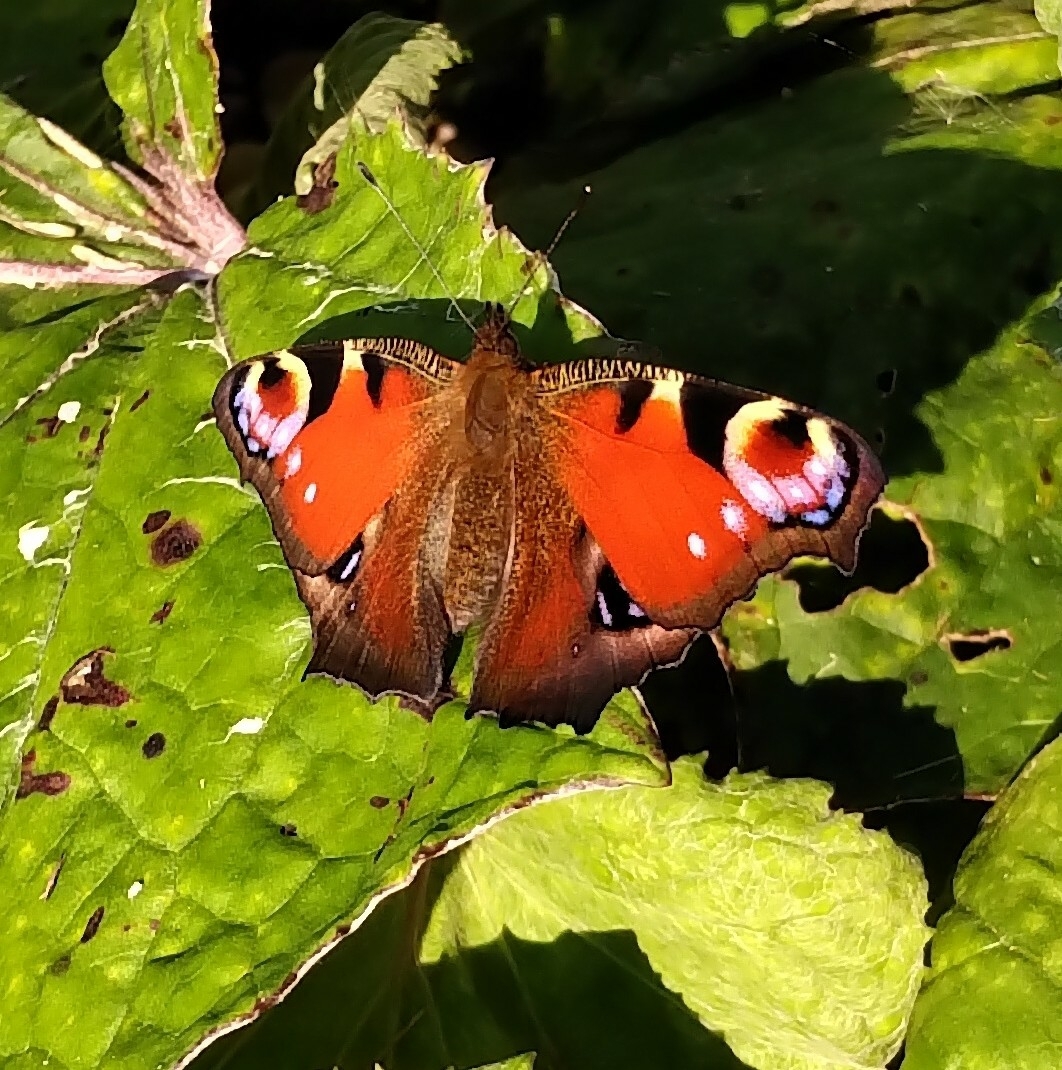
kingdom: Animalia
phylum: Arthropoda
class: Insecta
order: Lepidoptera
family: Nymphalidae
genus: Aglais
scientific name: Aglais io
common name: Peacock
